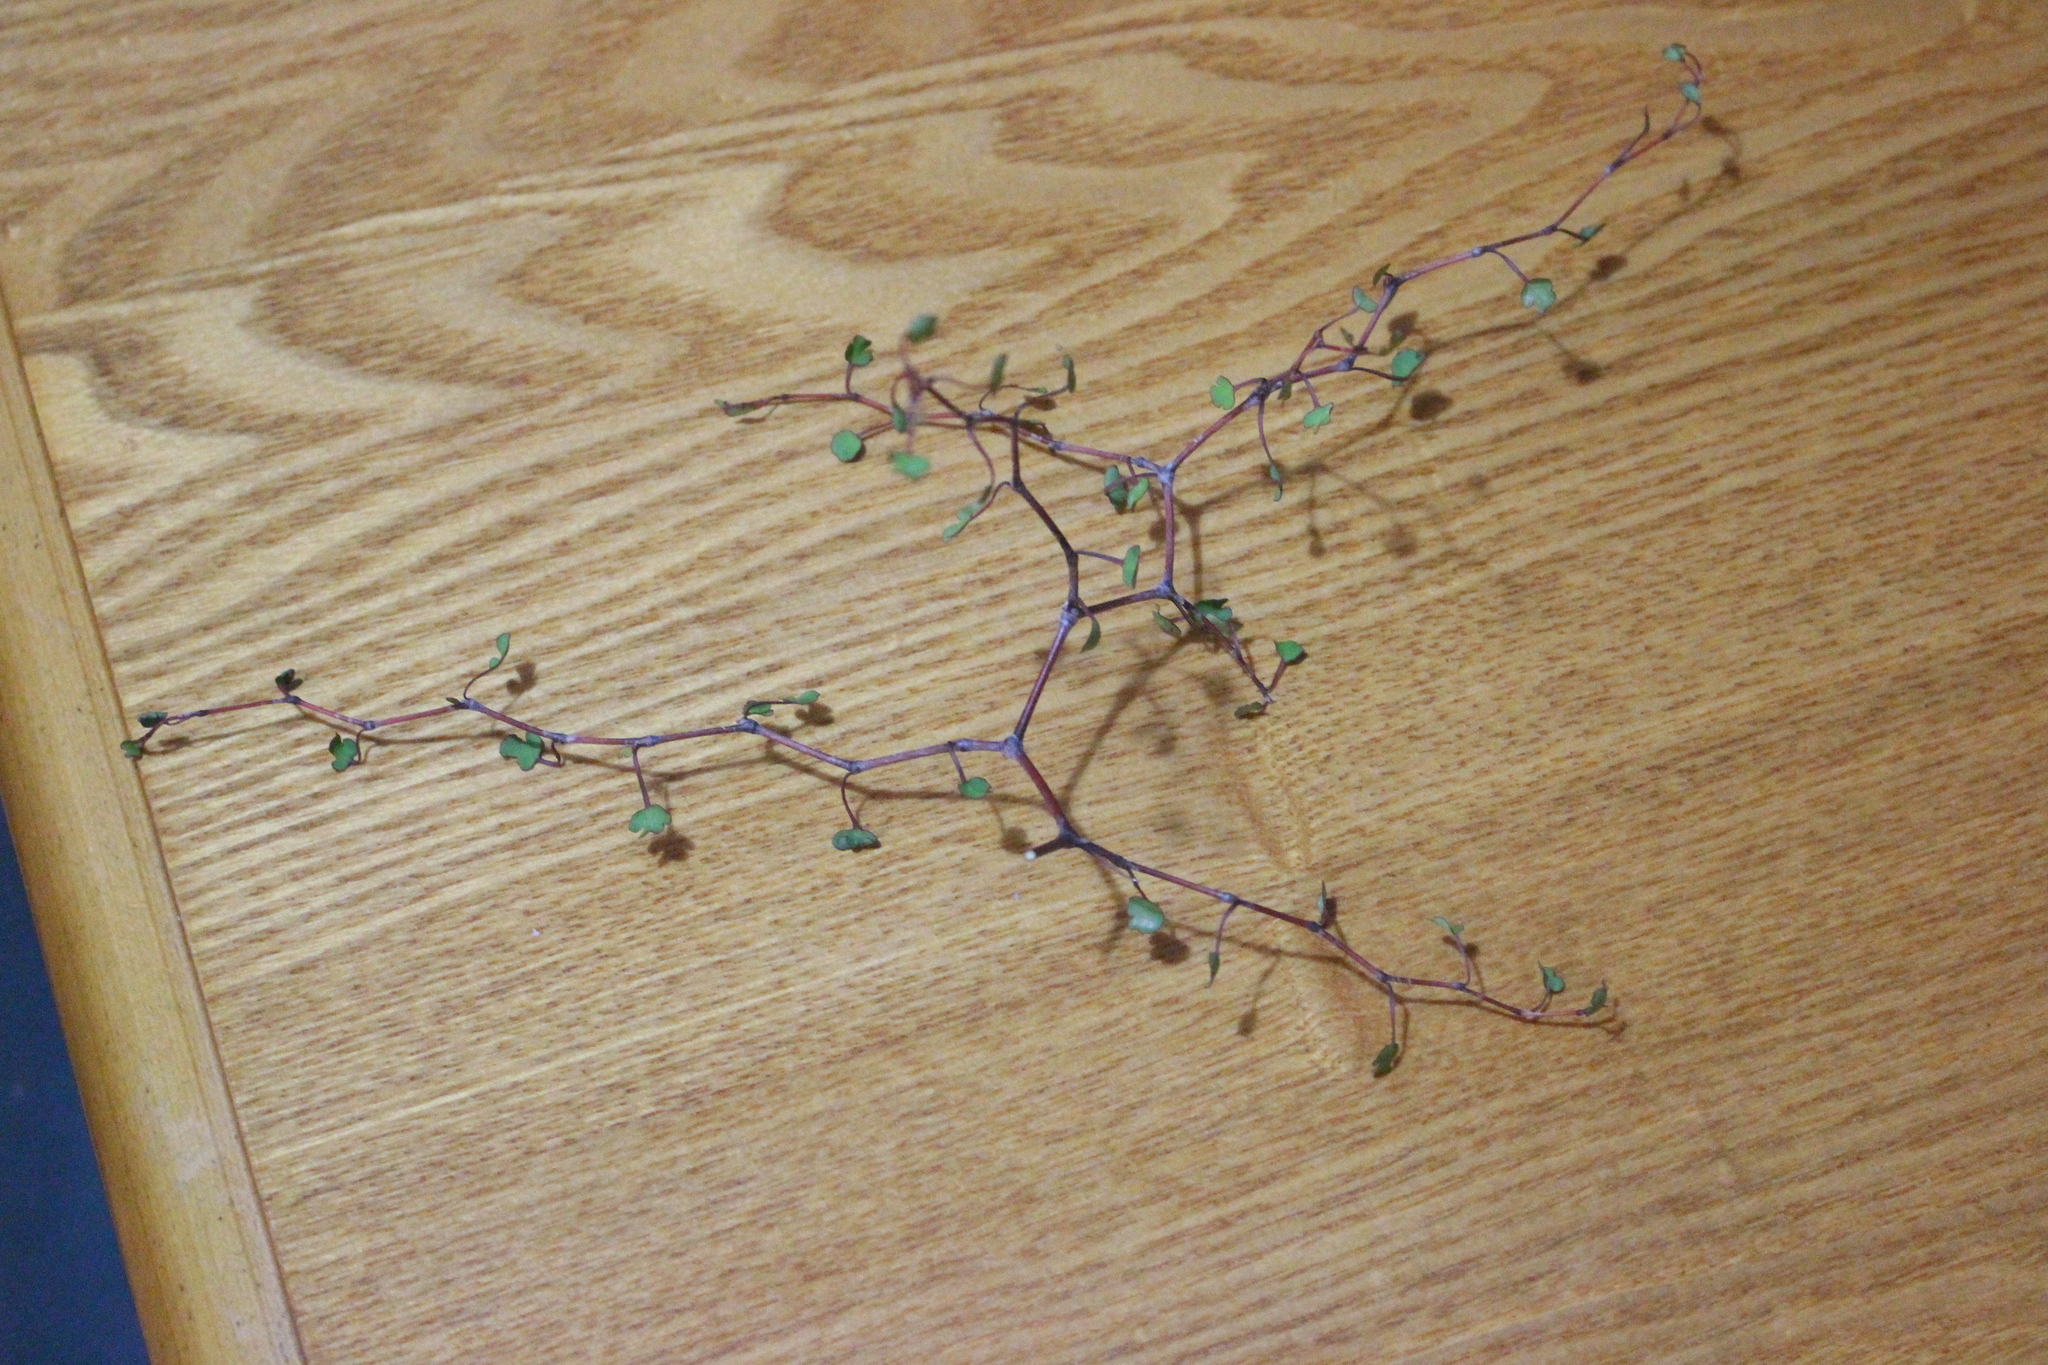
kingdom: Plantae
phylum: Tracheophyta
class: Magnoliopsida
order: Caryophyllales
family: Polygonaceae
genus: Muehlenbeckia
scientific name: Muehlenbeckia astonii
